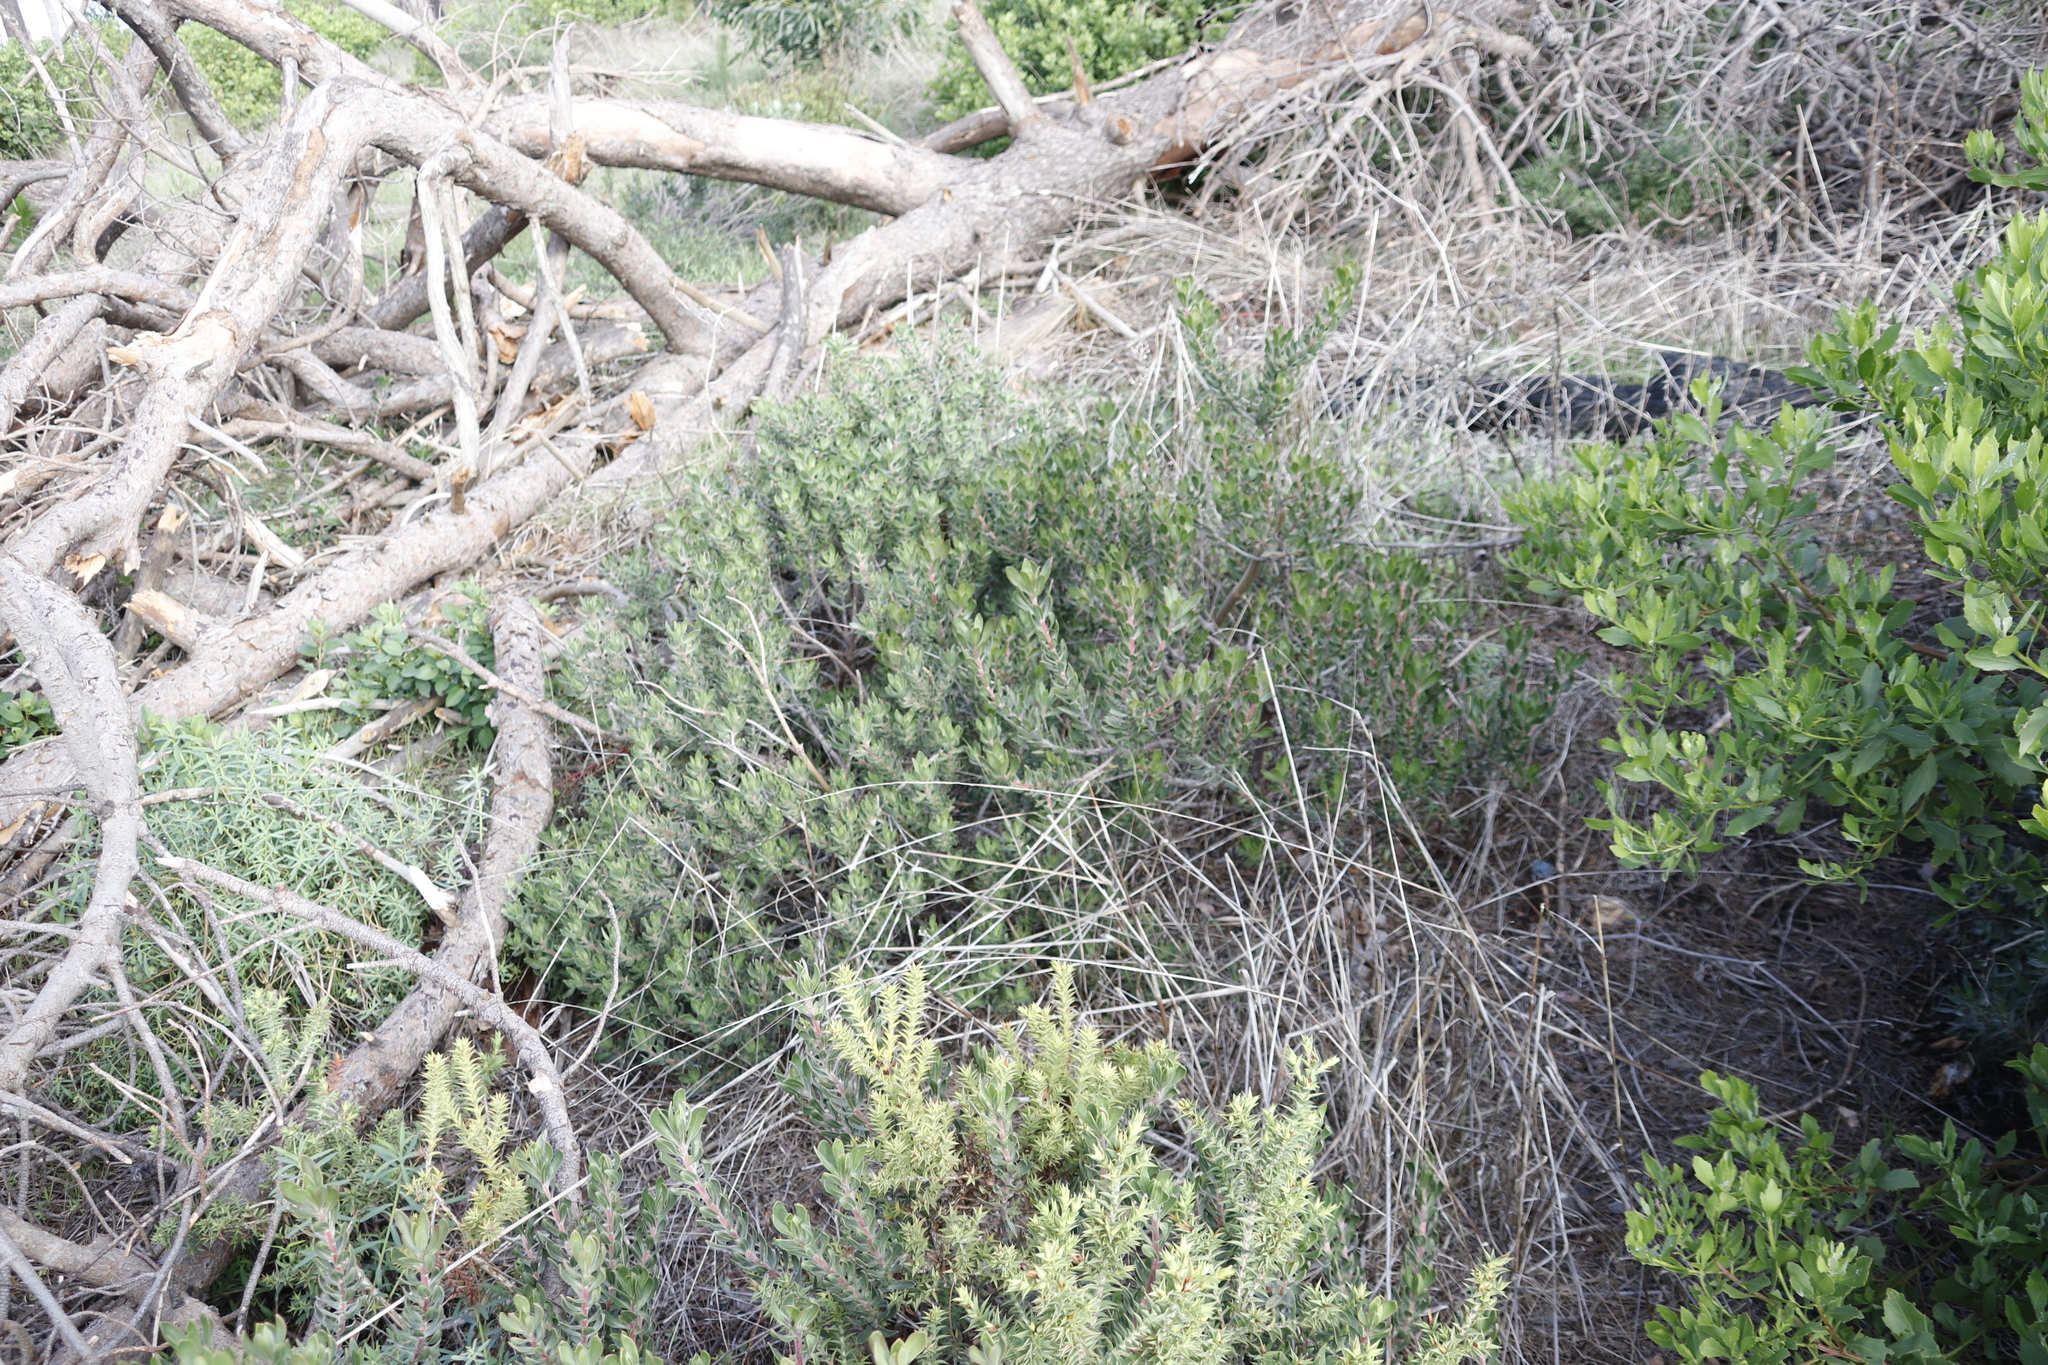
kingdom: Plantae
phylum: Tracheophyta
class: Magnoliopsida
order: Boraginales
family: Boraginaceae
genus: Lobostemon
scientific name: Lobostemon fruticosus
